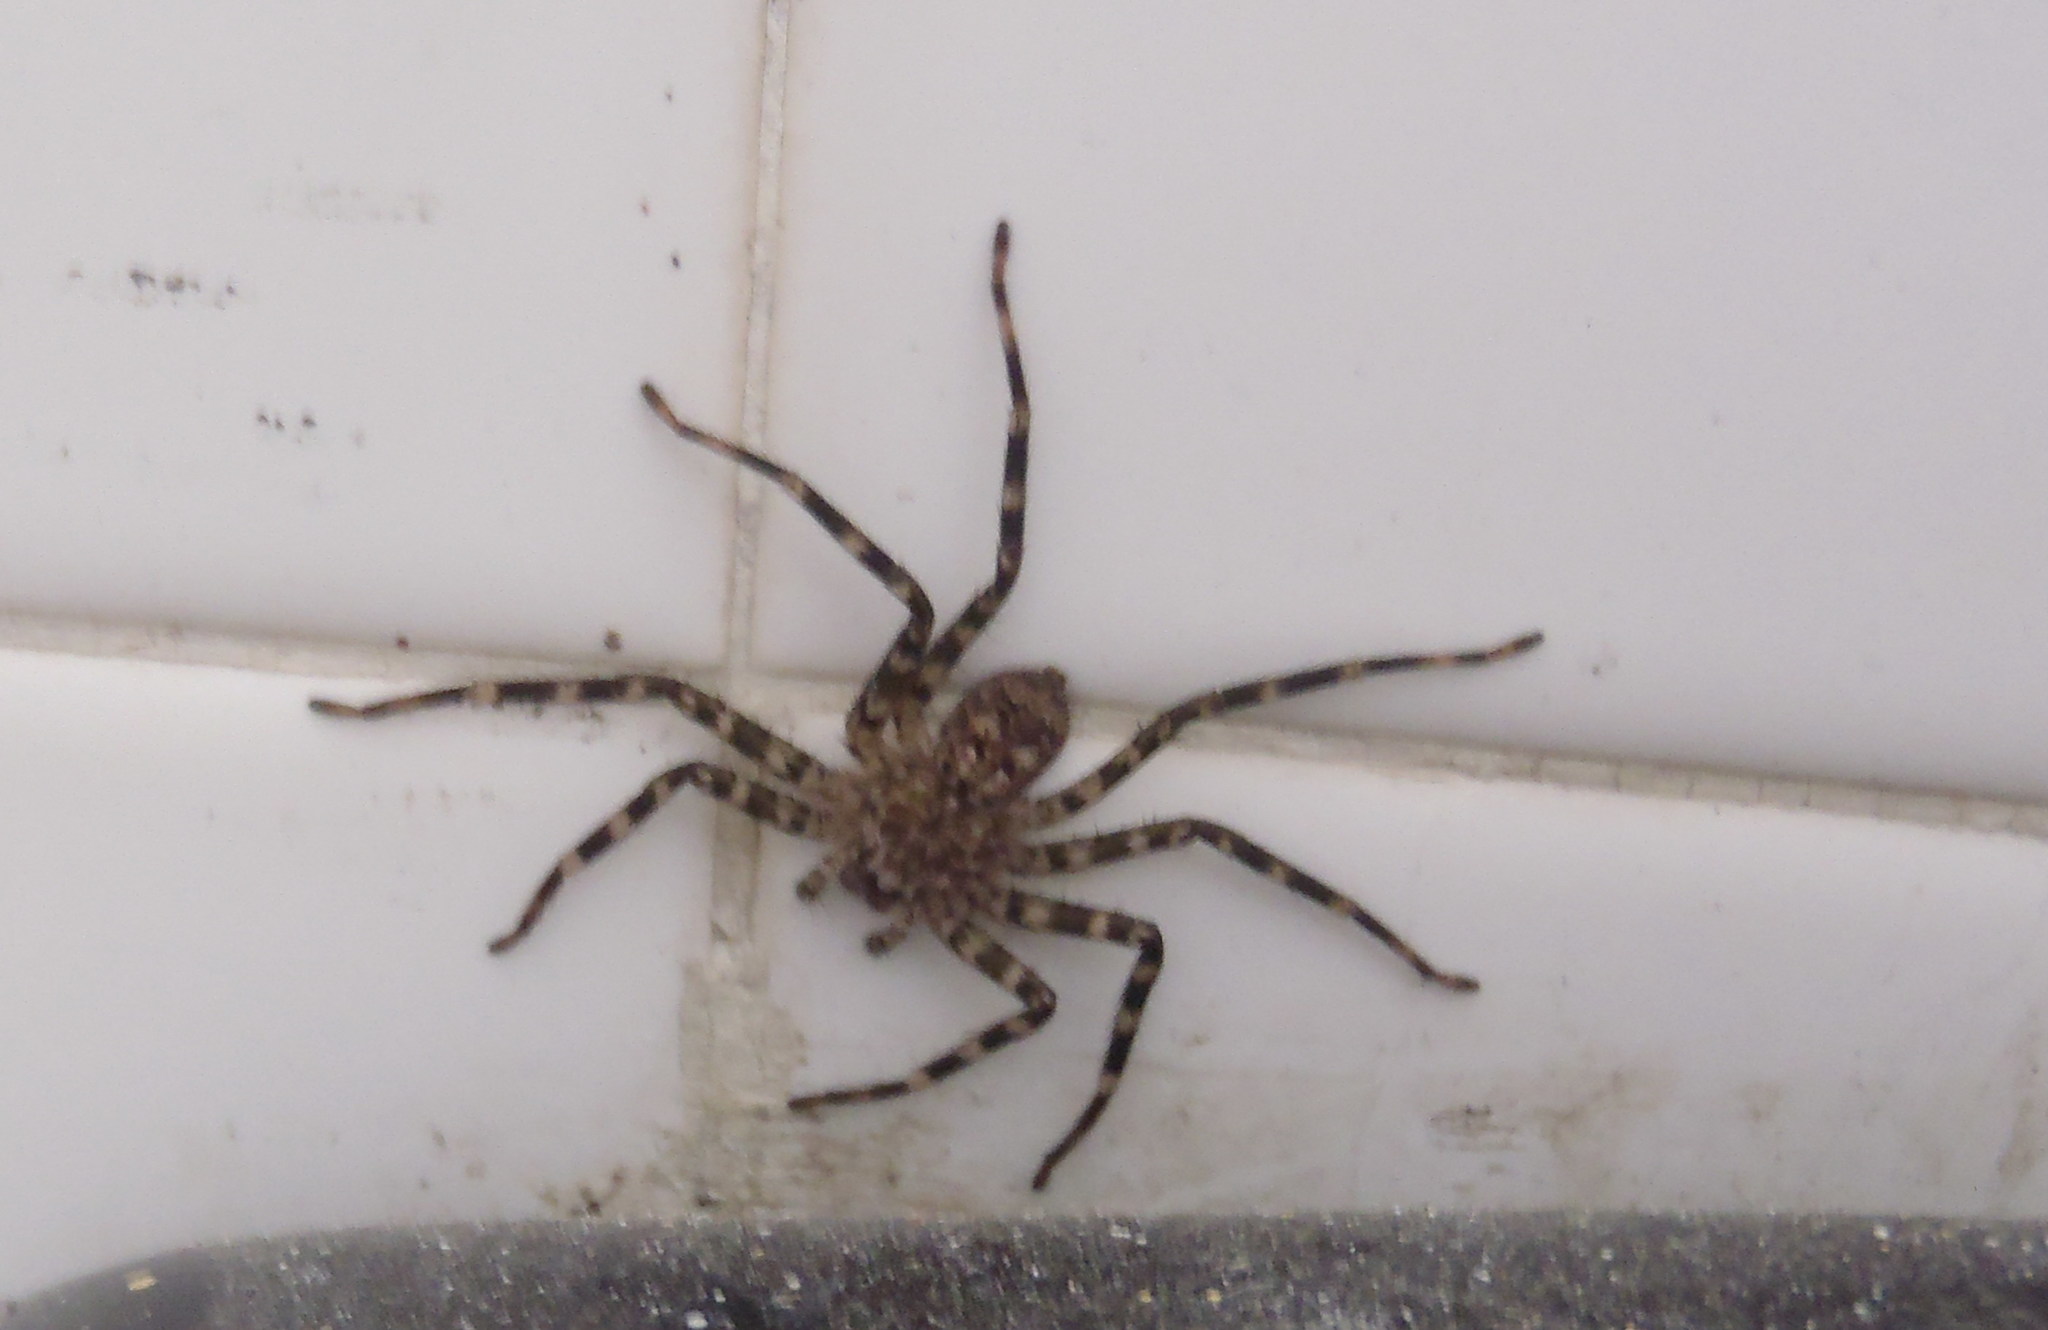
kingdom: Animalia
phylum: Arthropoda
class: Arachnida
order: Araneae
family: Selenopidae
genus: Anyphops
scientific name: Anyphops capensis
